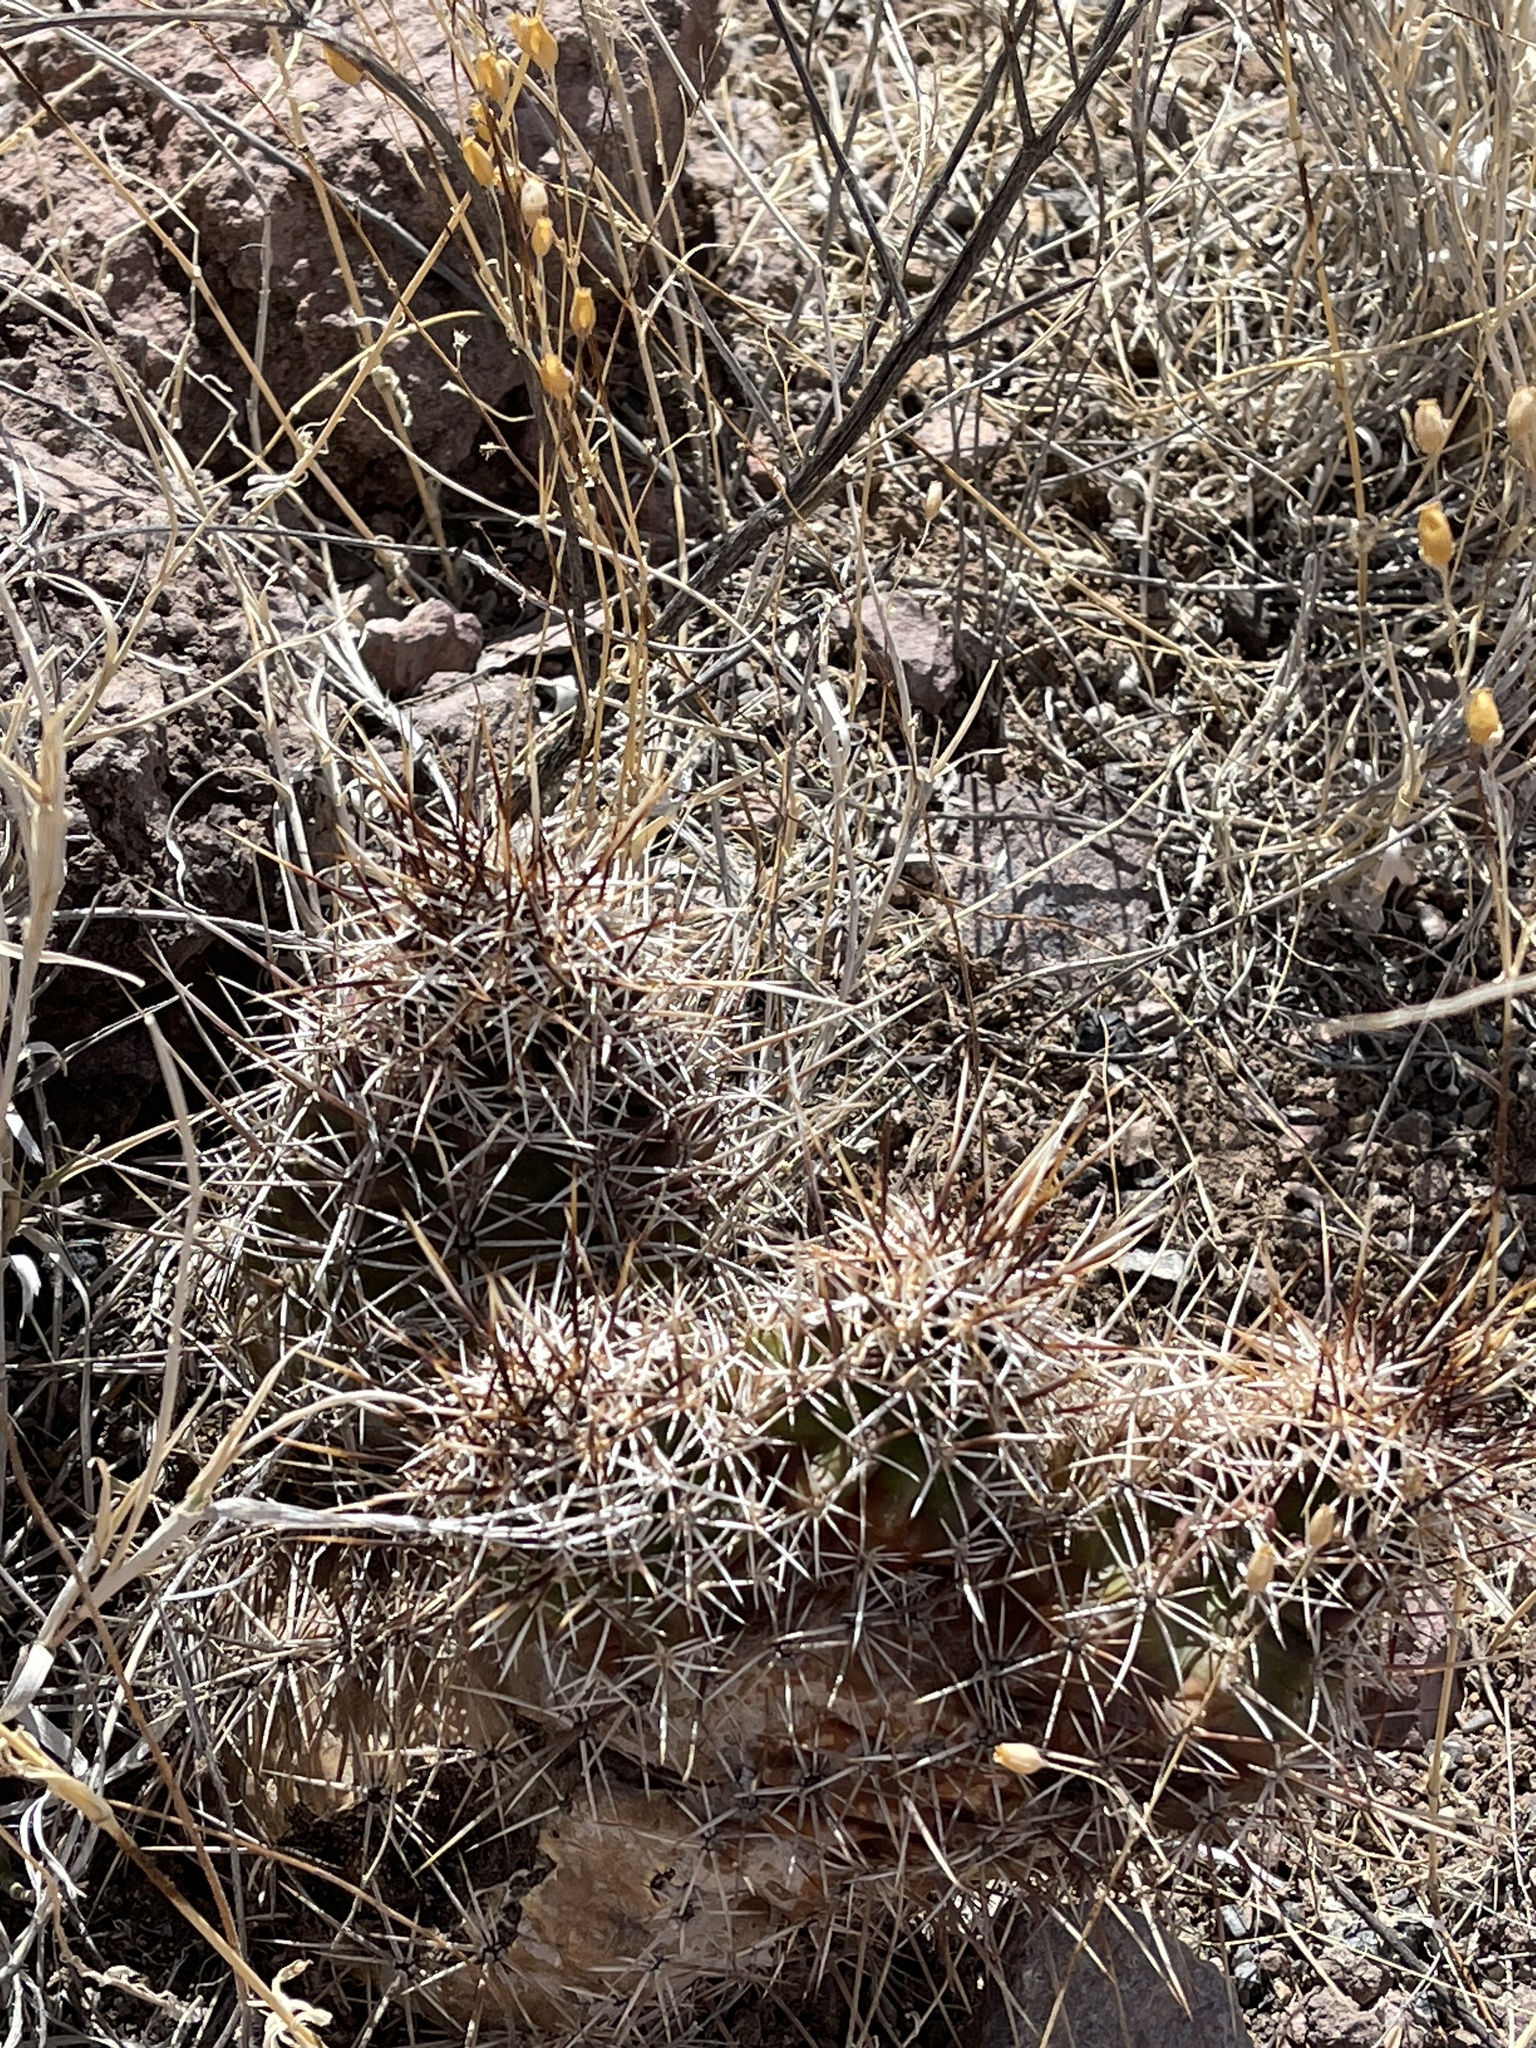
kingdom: Plantae
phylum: Tracheophyta
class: Magnoliopsida
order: Caryophyllales
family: Cactaceae
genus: Echinocereus
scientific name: Echinocereus fendleri
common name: Fendler's hedgehog cactus
